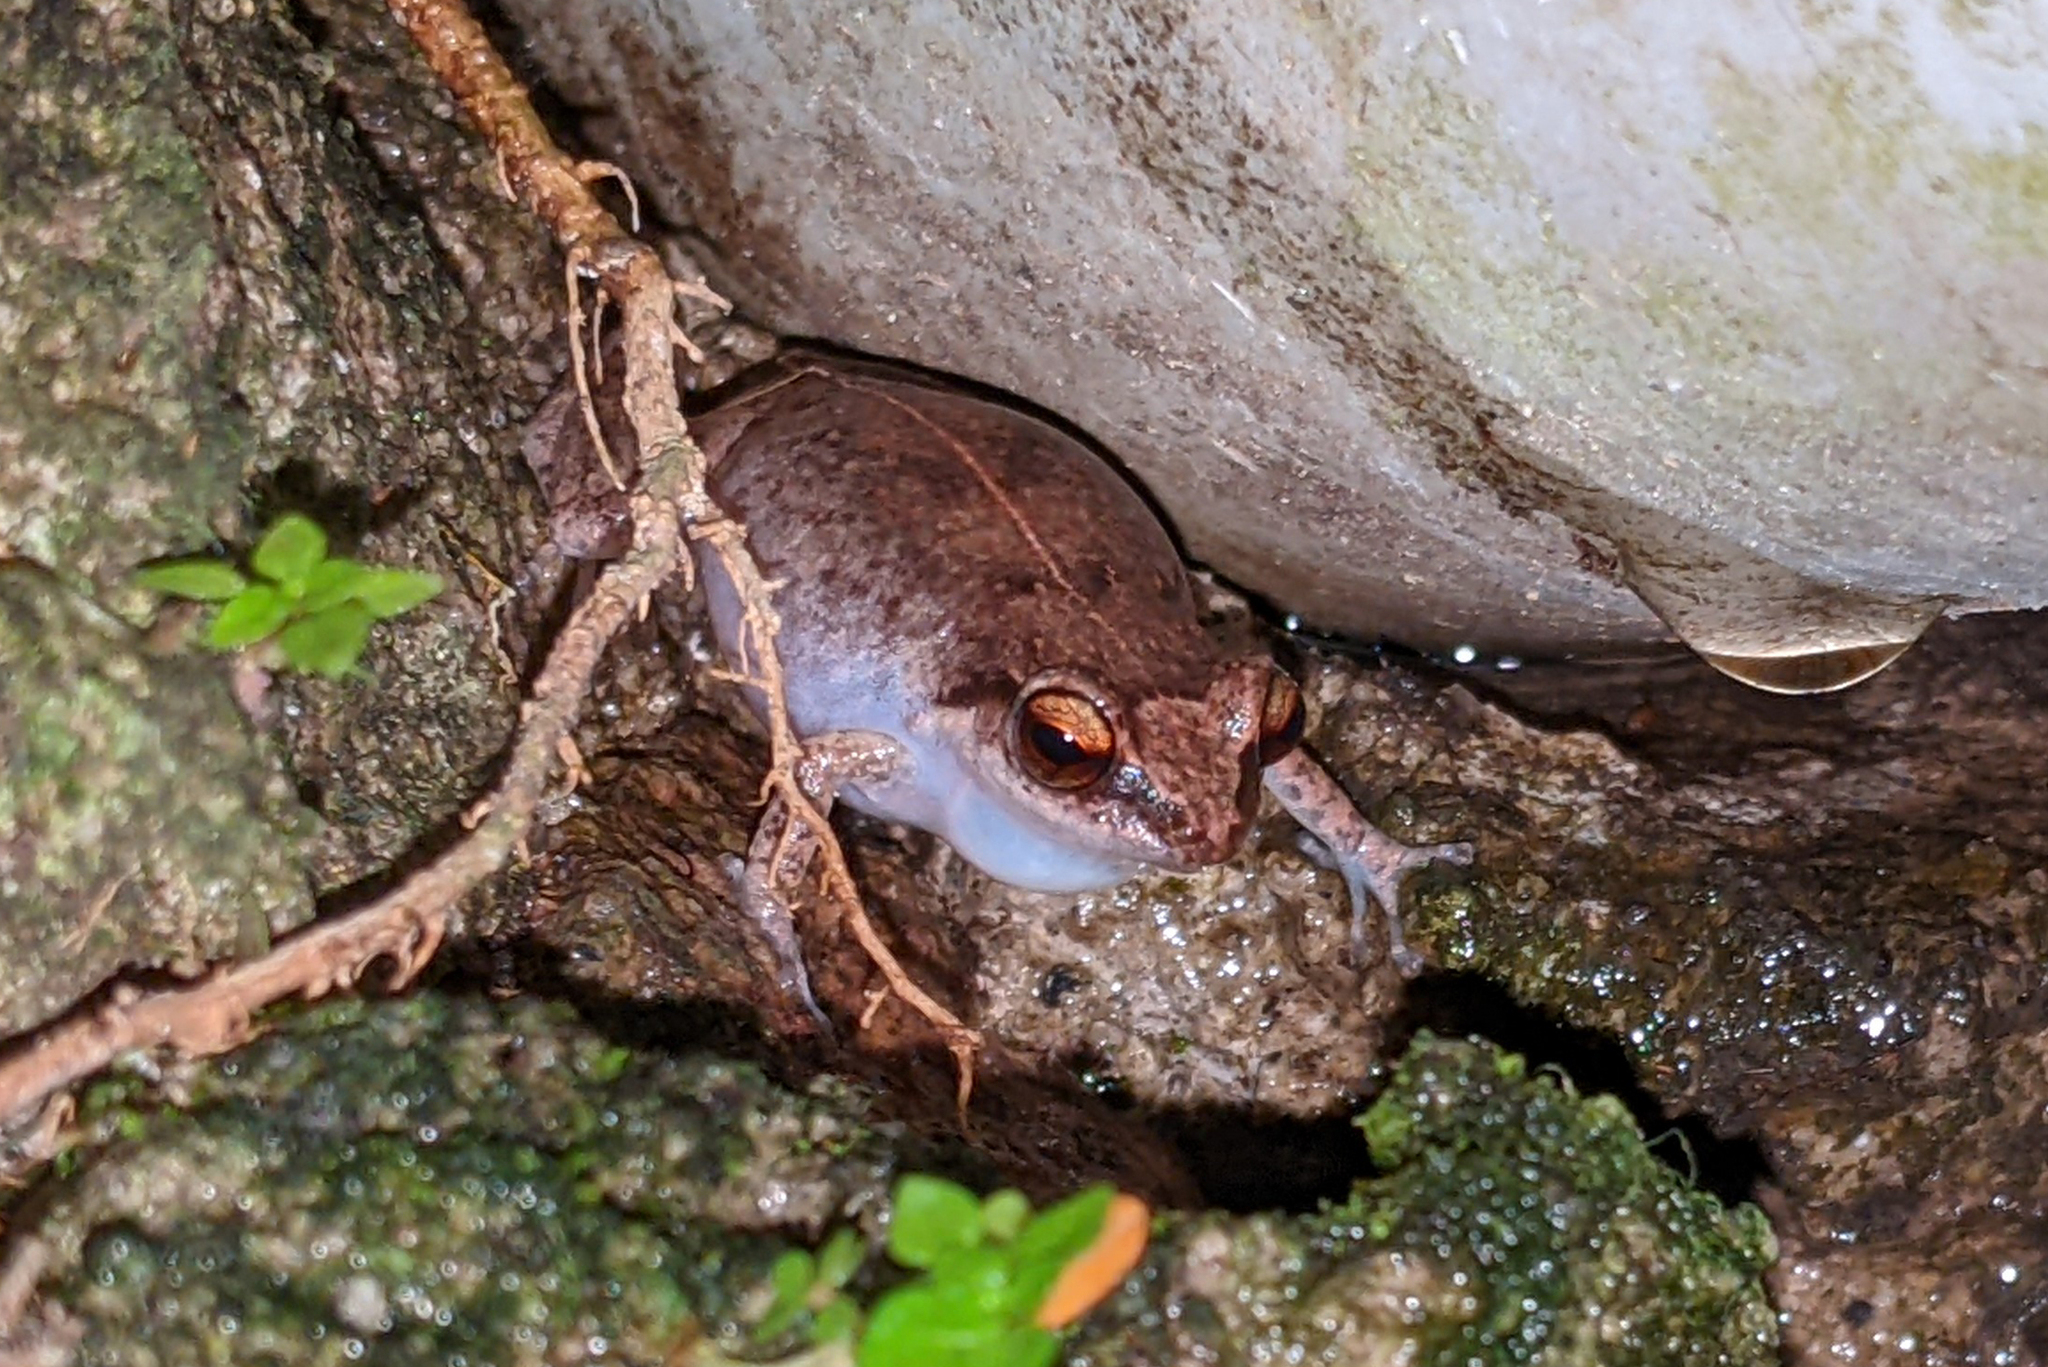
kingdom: Animalia
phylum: Chordata
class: Amphibia
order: Anura
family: Eleutherodactylidae
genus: Eleutherodactylus
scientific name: Eleutherodactylus johnstonei
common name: Johnstone's robber frog
